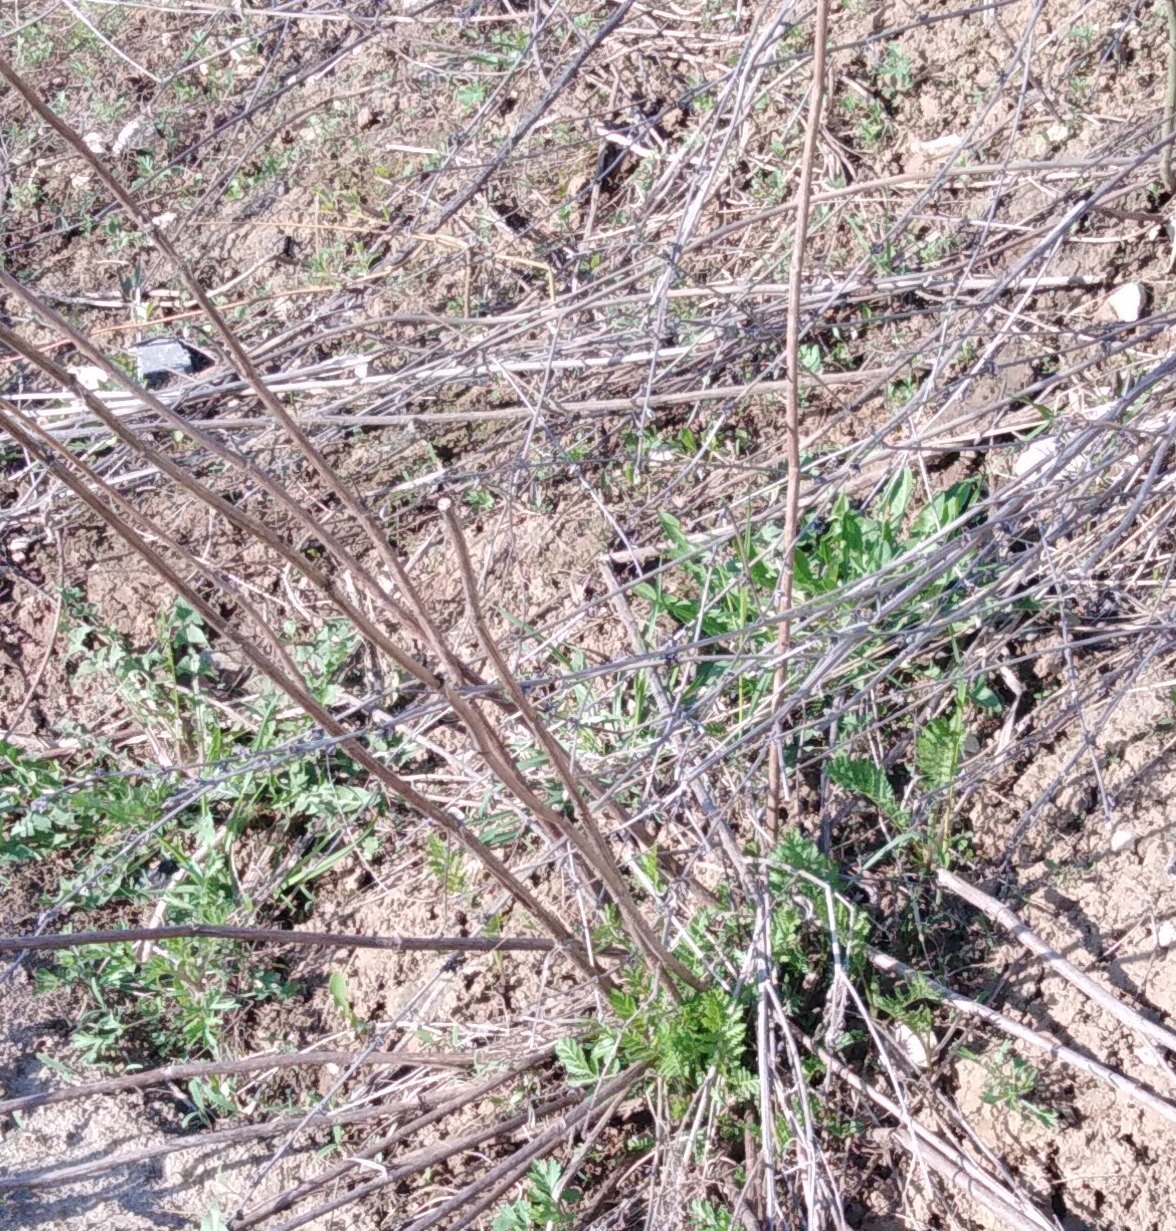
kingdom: Plantae
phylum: Tracheophyta
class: Magnoliopsida
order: Asterales
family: Asteraceae
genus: Tanacetum
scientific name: Tanacetum vulgare
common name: Common tansy
